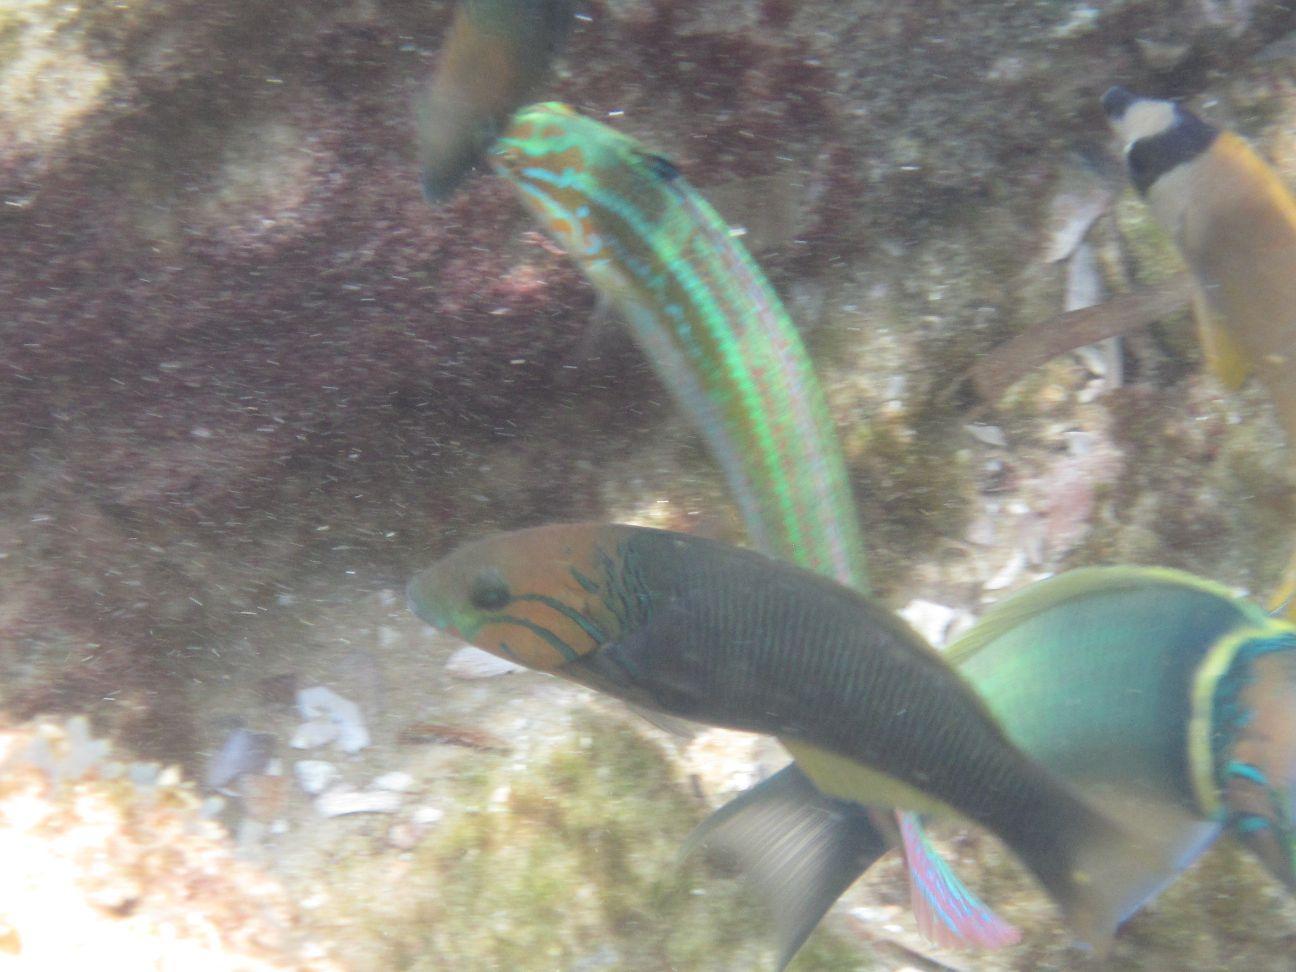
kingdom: Animalia
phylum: Chordata
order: Perciformes
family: Labridae
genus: Thalassoma
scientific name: Thalassoma hebraicum
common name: Goldbar wrasse
